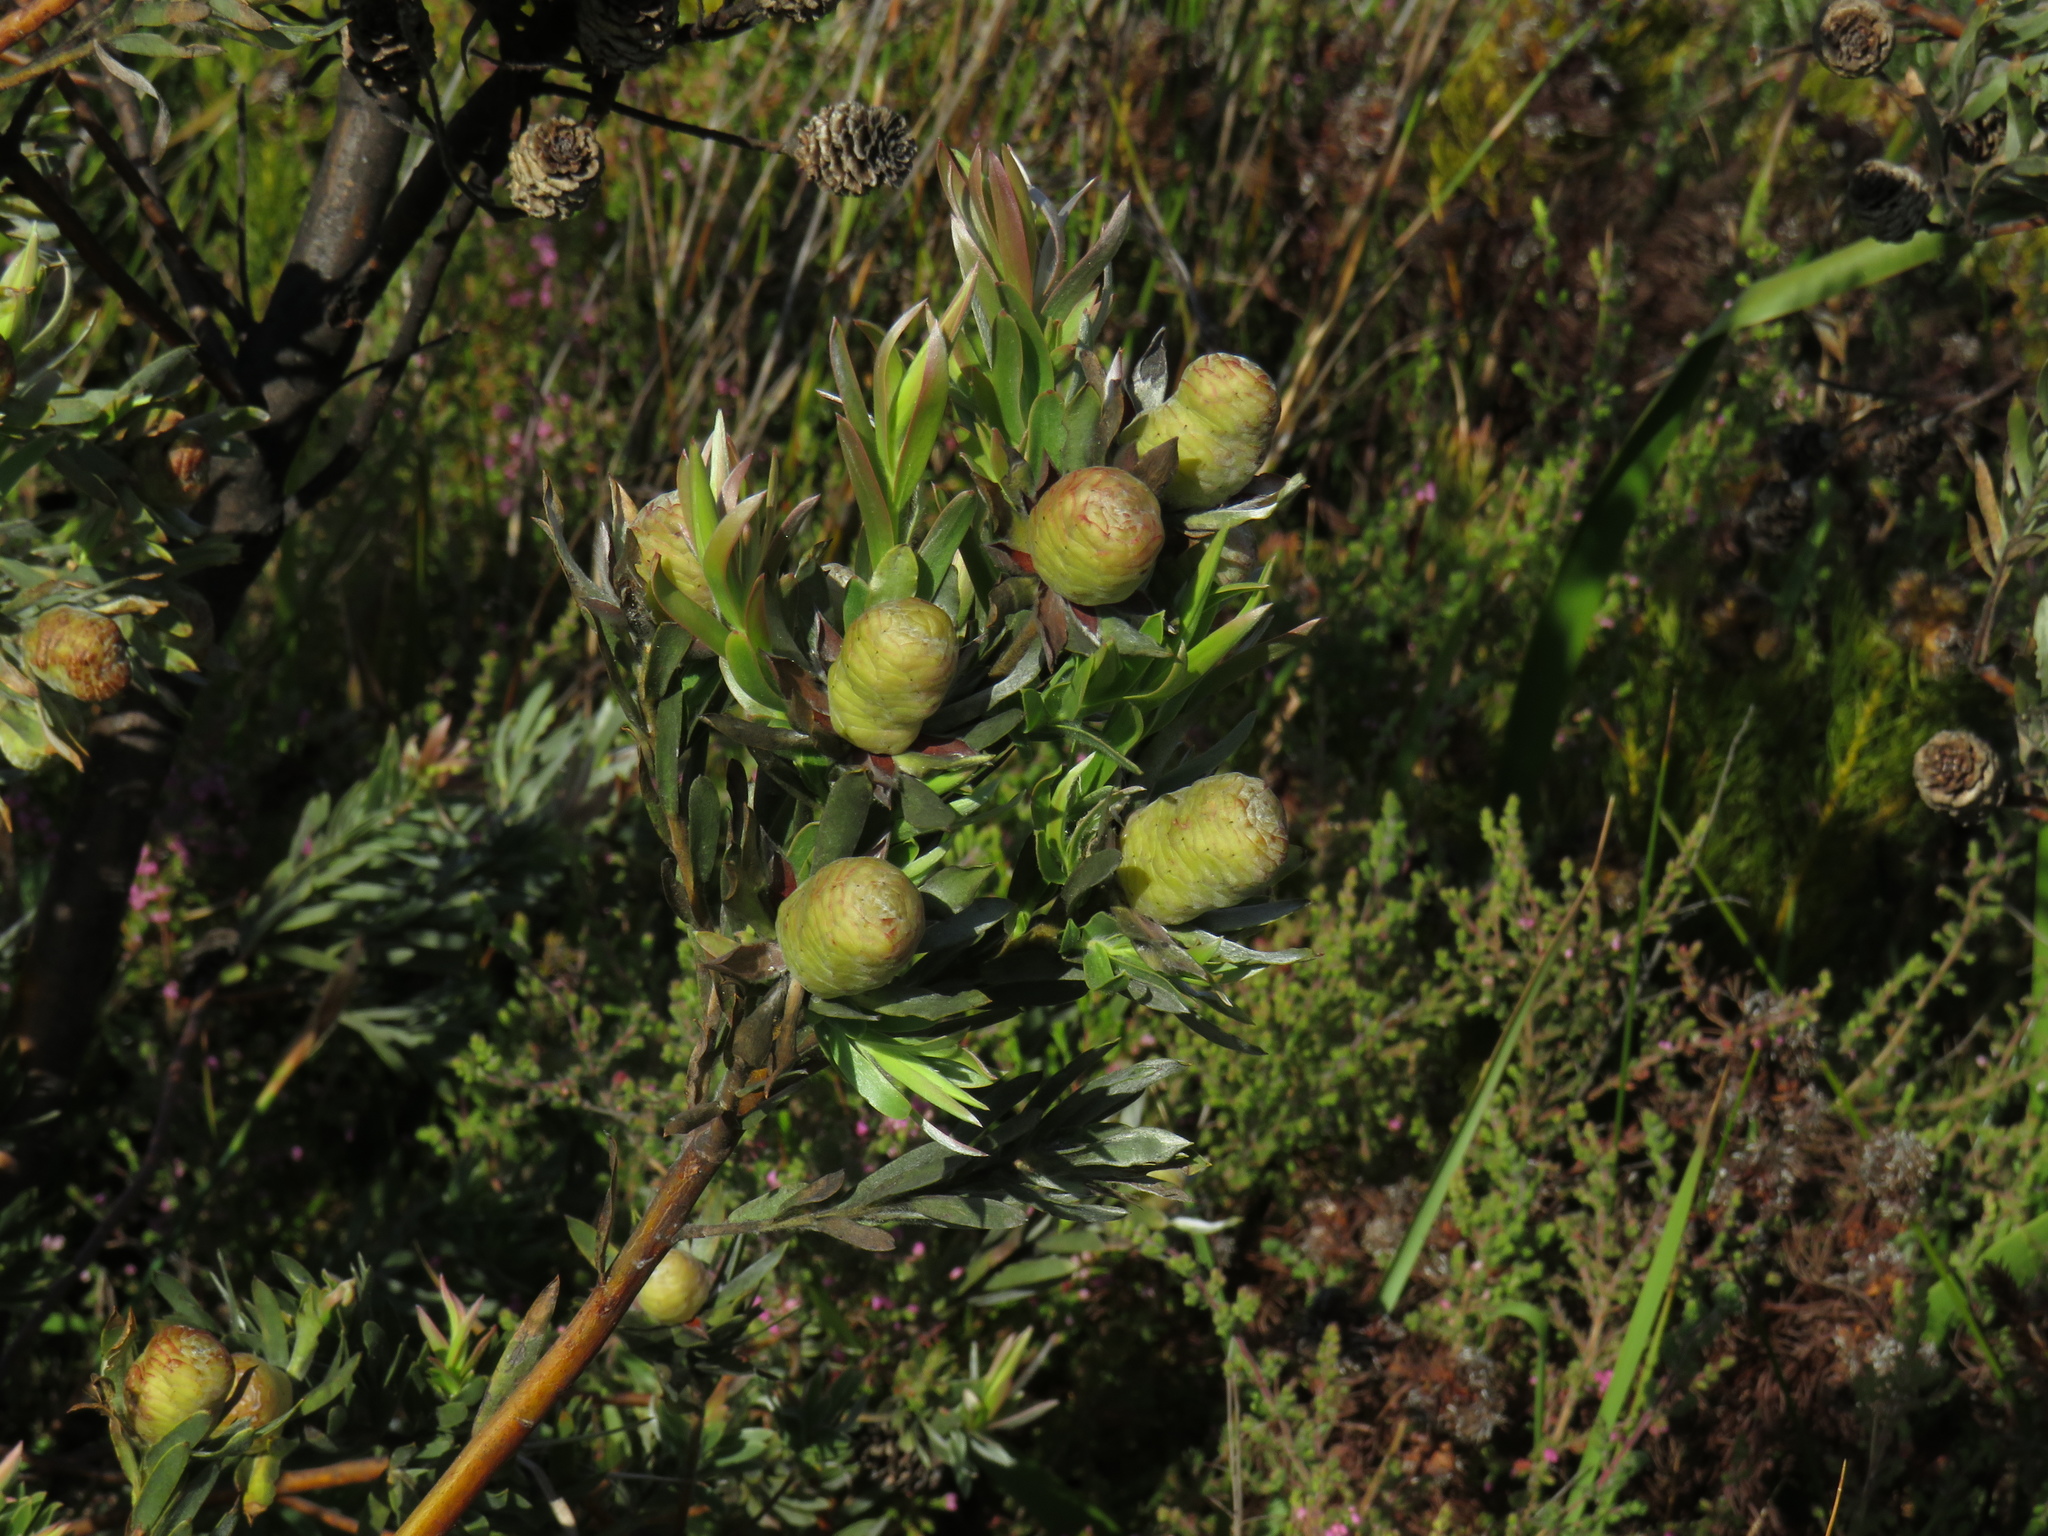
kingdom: Plantae
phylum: Tracheophyta
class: Magnoliopsida
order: Proteales
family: Proteaceae
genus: Leucadendron
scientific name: Leucadendron floridum
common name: Flats conebush
